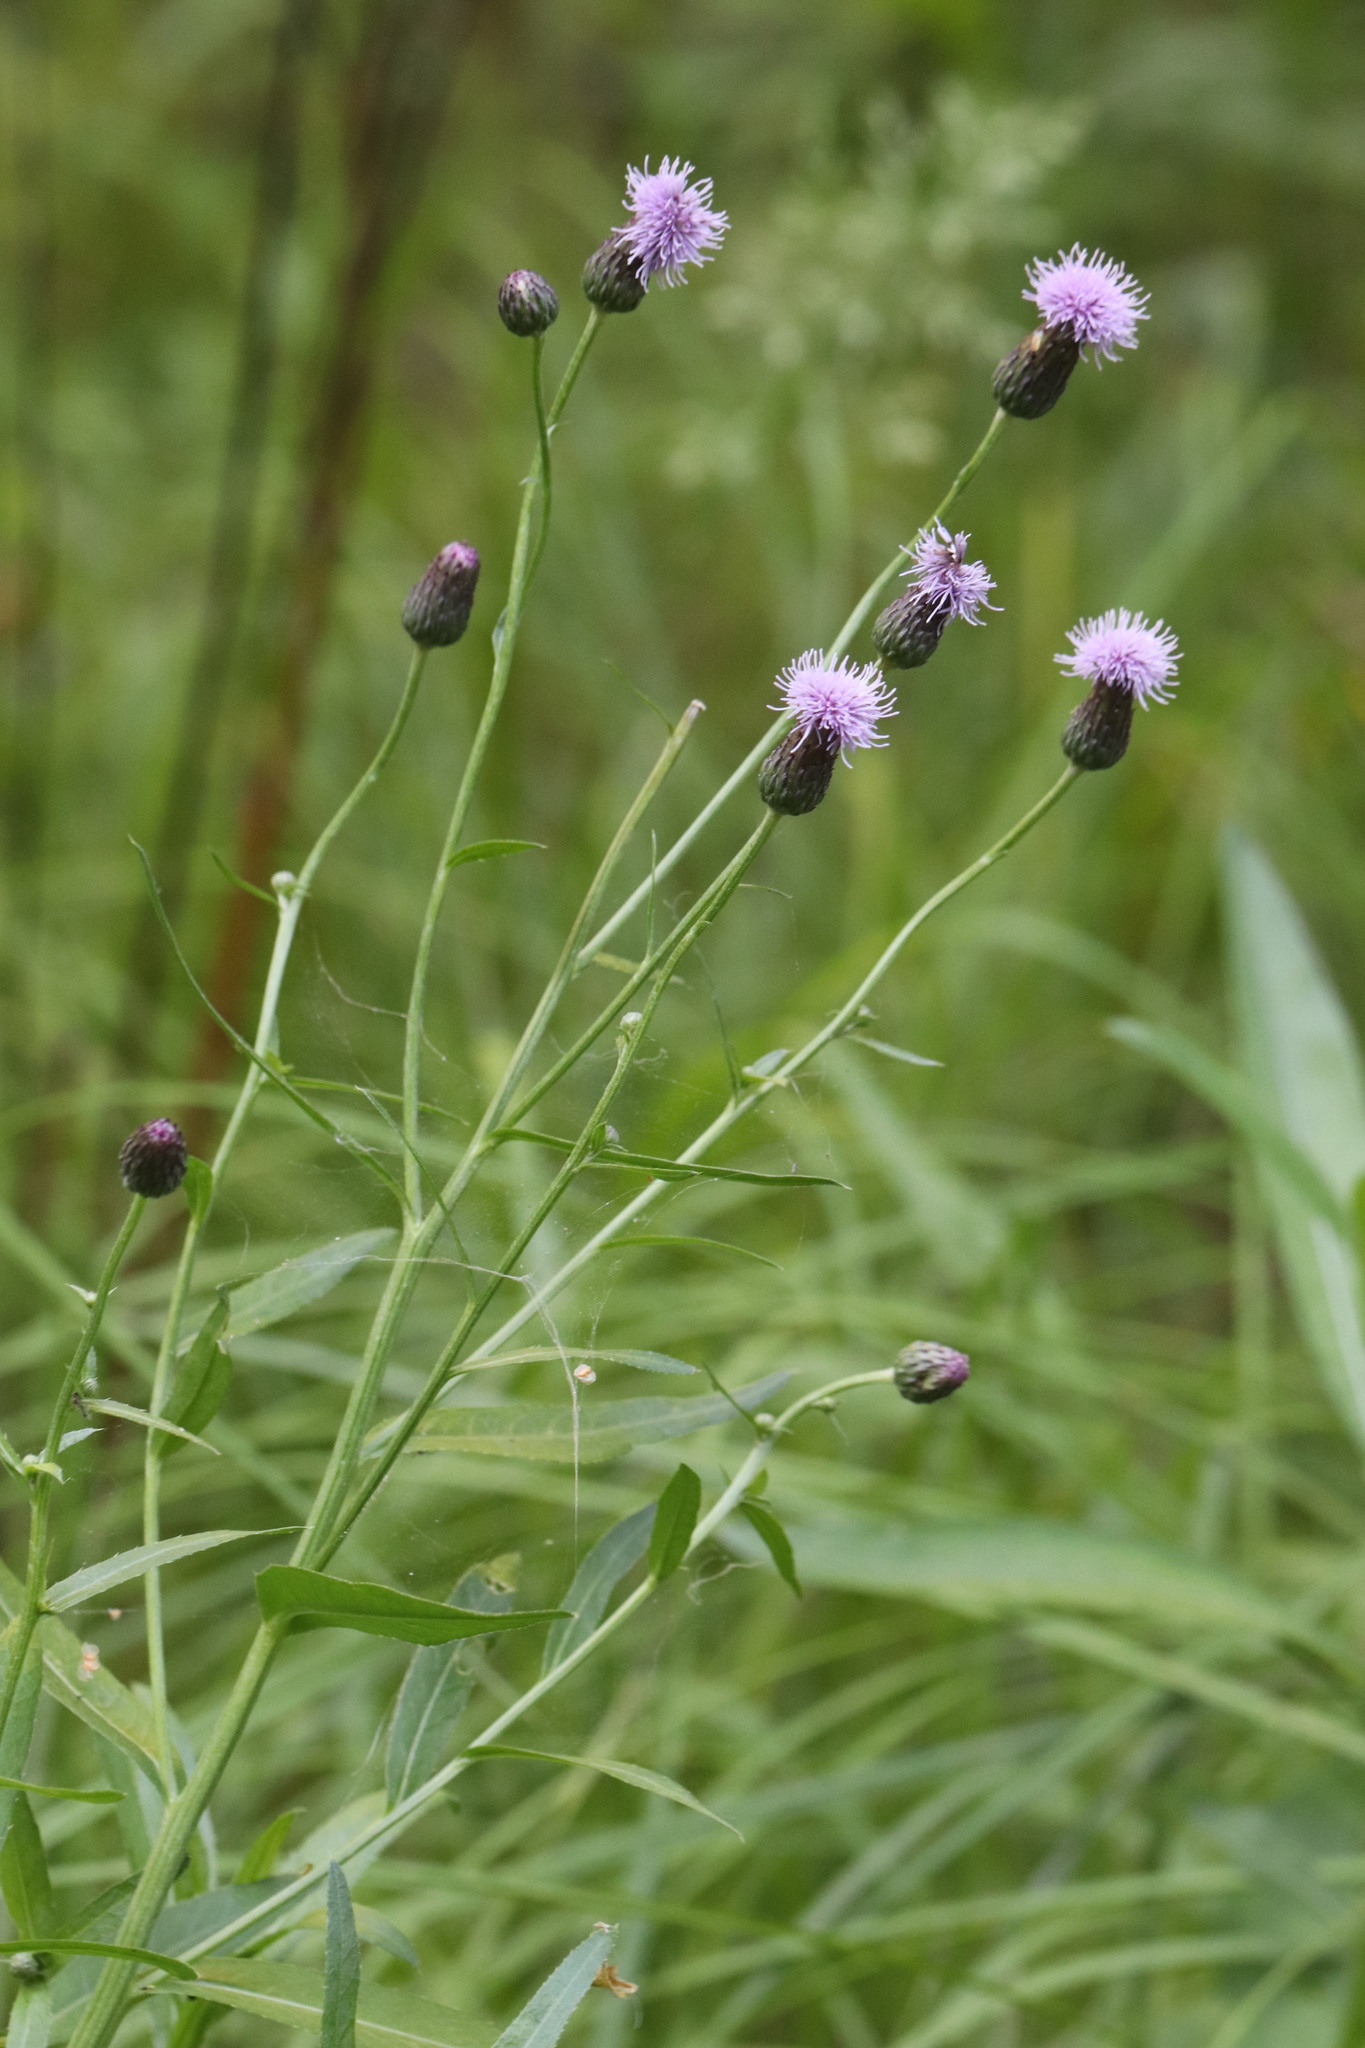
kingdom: Plantae
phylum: Tracheophyta
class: Magnoliopsida
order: Asterales
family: Asteraceae
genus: Cirsium
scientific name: Cirsium arvense
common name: Creeping thistle
